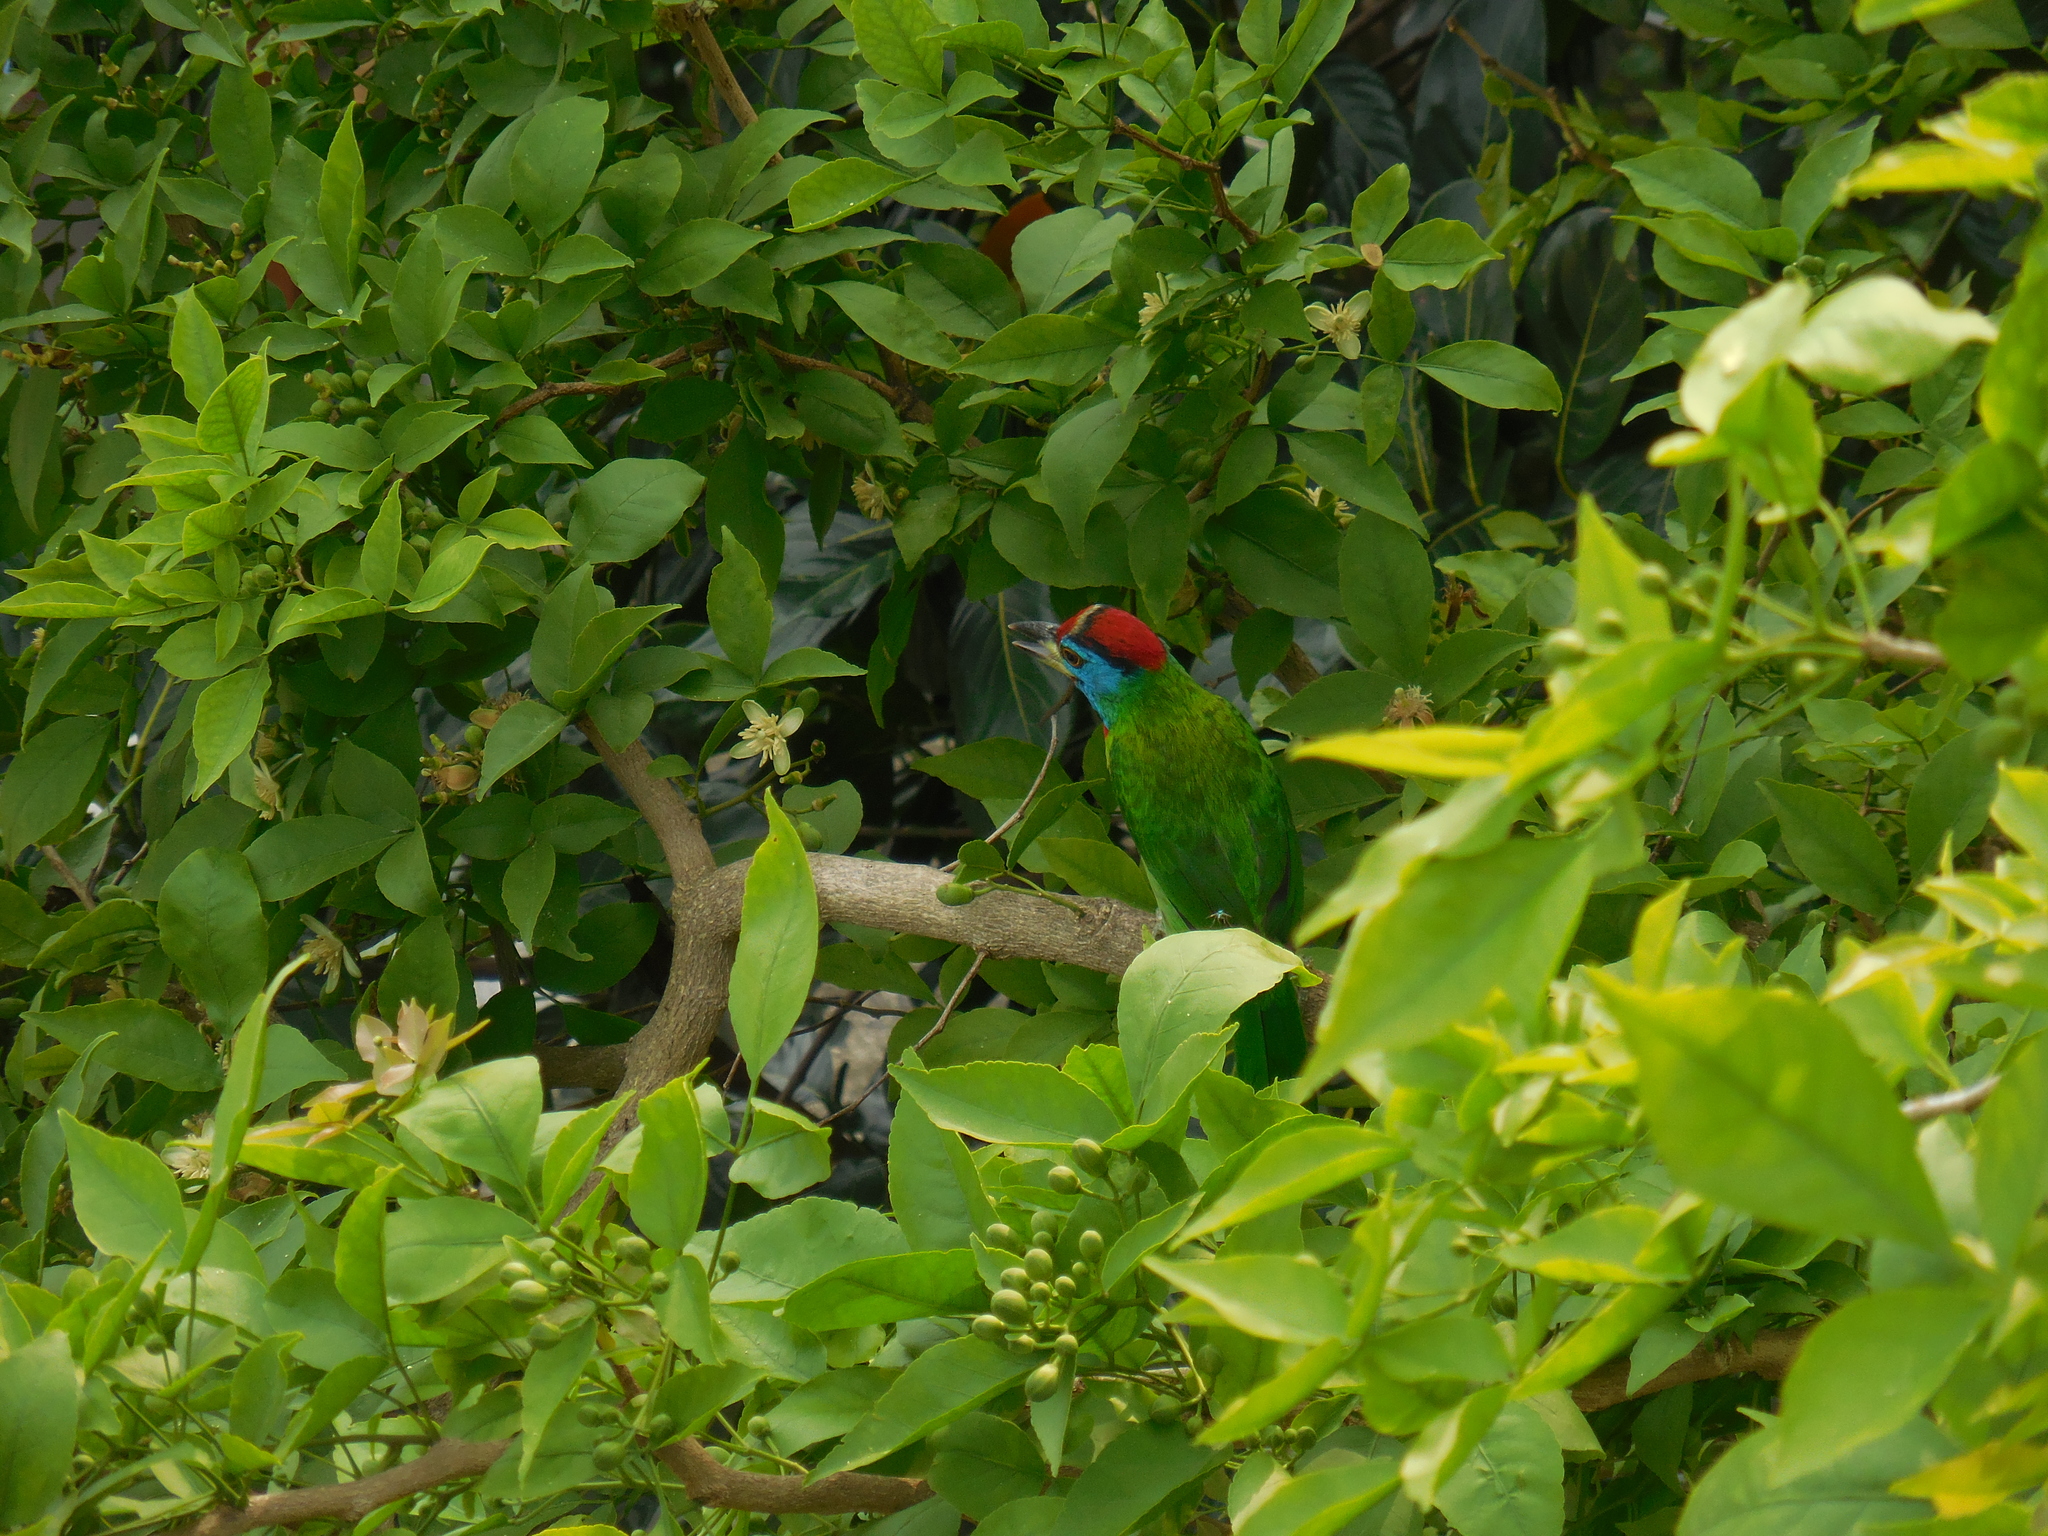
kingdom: Animalia
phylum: Chordata
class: Aves
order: Piciformes
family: Megalaimidae
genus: Psilopogon
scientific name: Psilopogon asiaticus
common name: Blue-throated barbet
